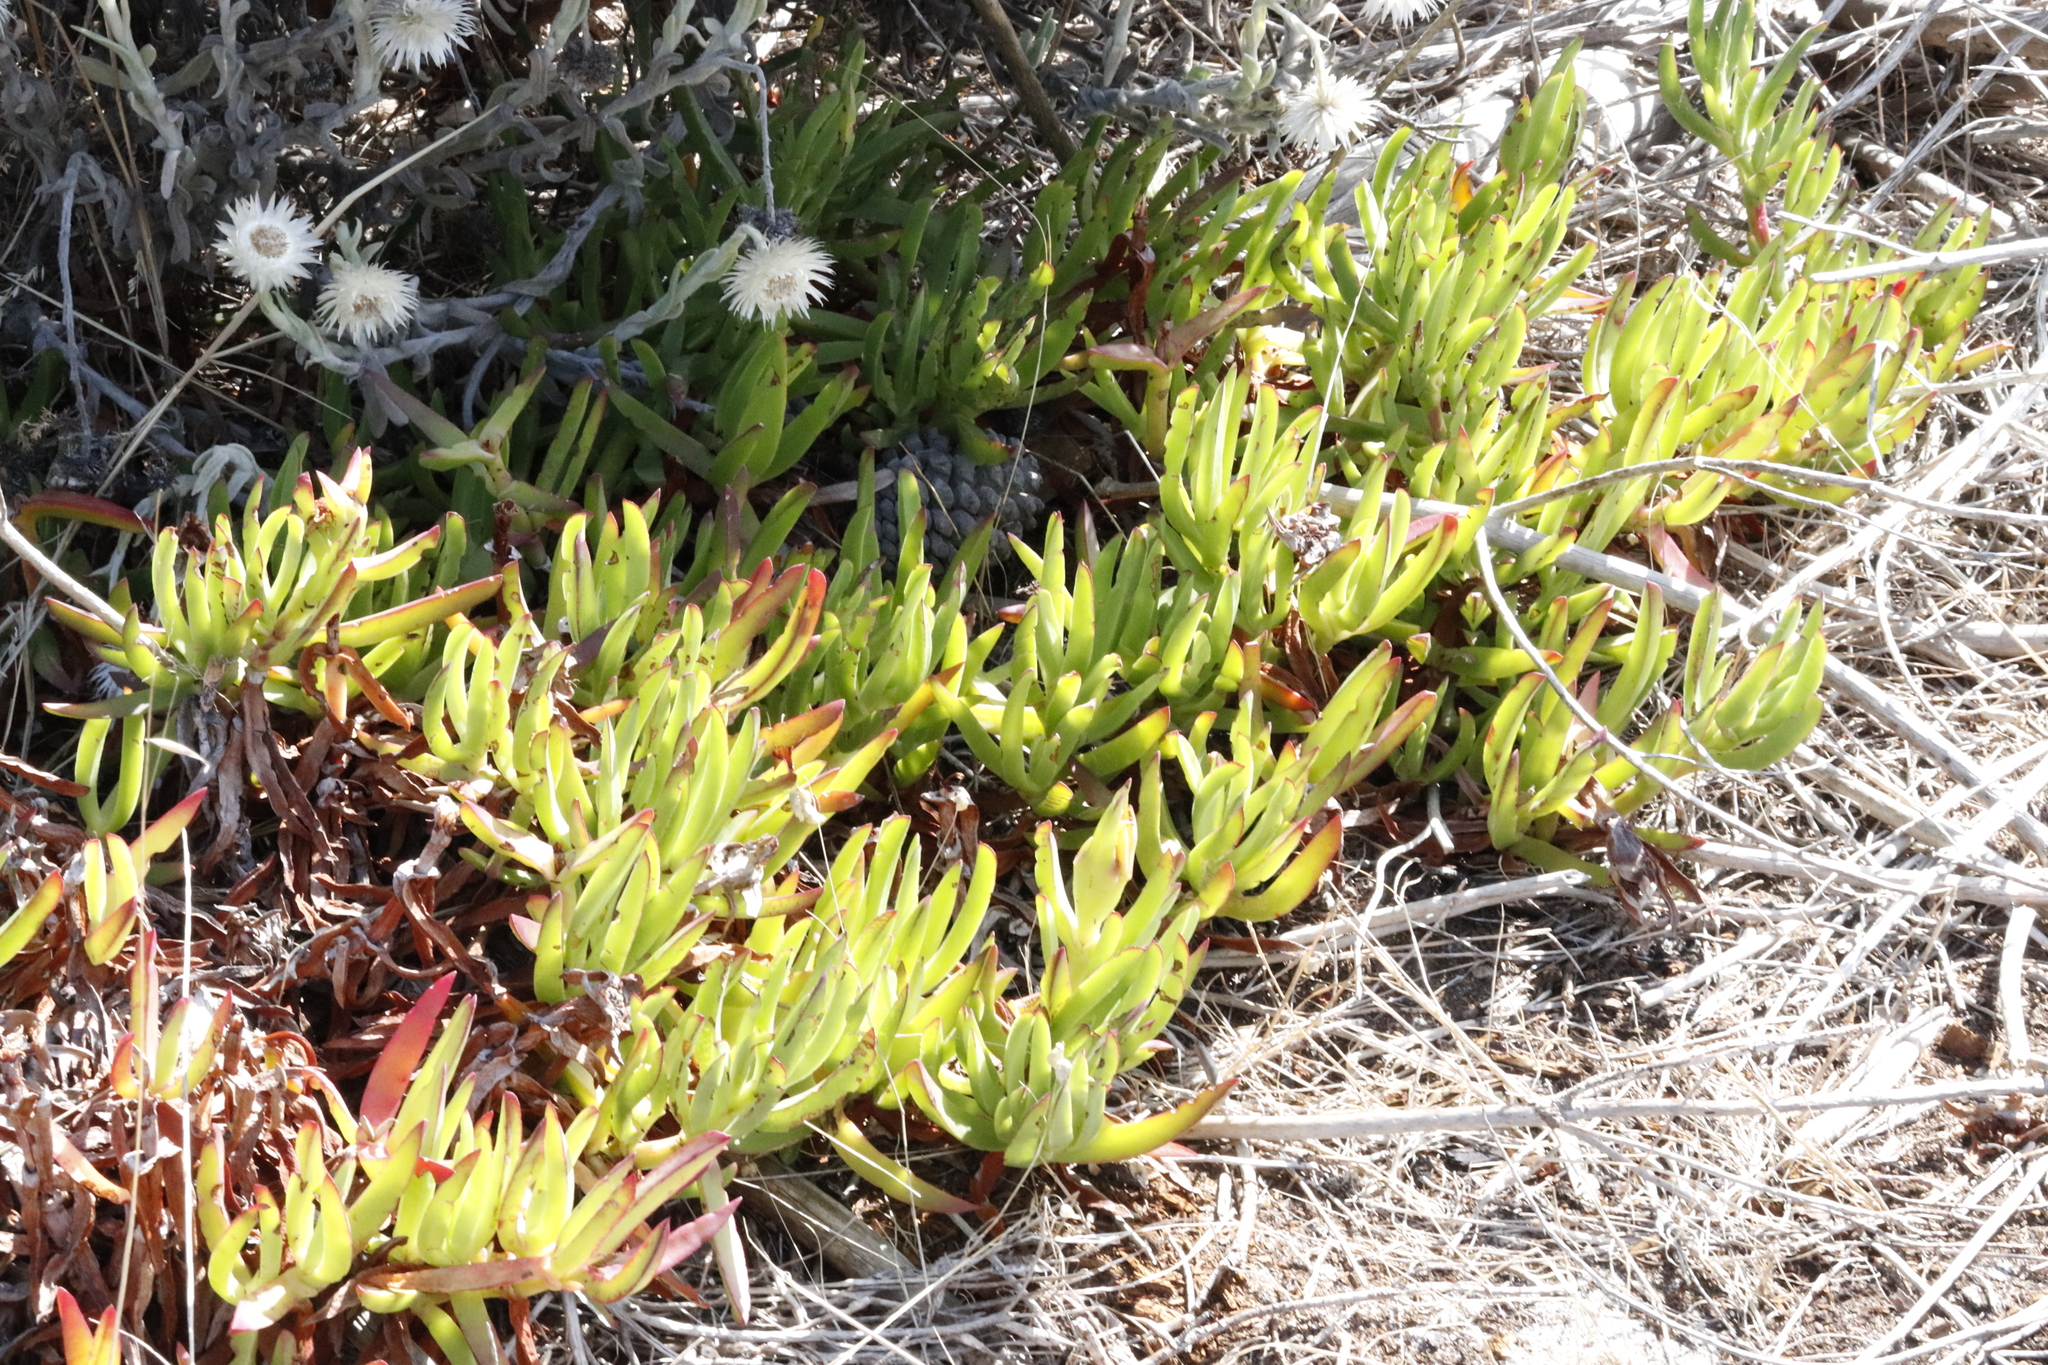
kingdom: Plantae
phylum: Tracheophyta
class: Magnoliopsida
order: Caryophyllales
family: Aizoaceae
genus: Carpobrotus
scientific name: Carpobrotus edulis
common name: Hottentot-fig
